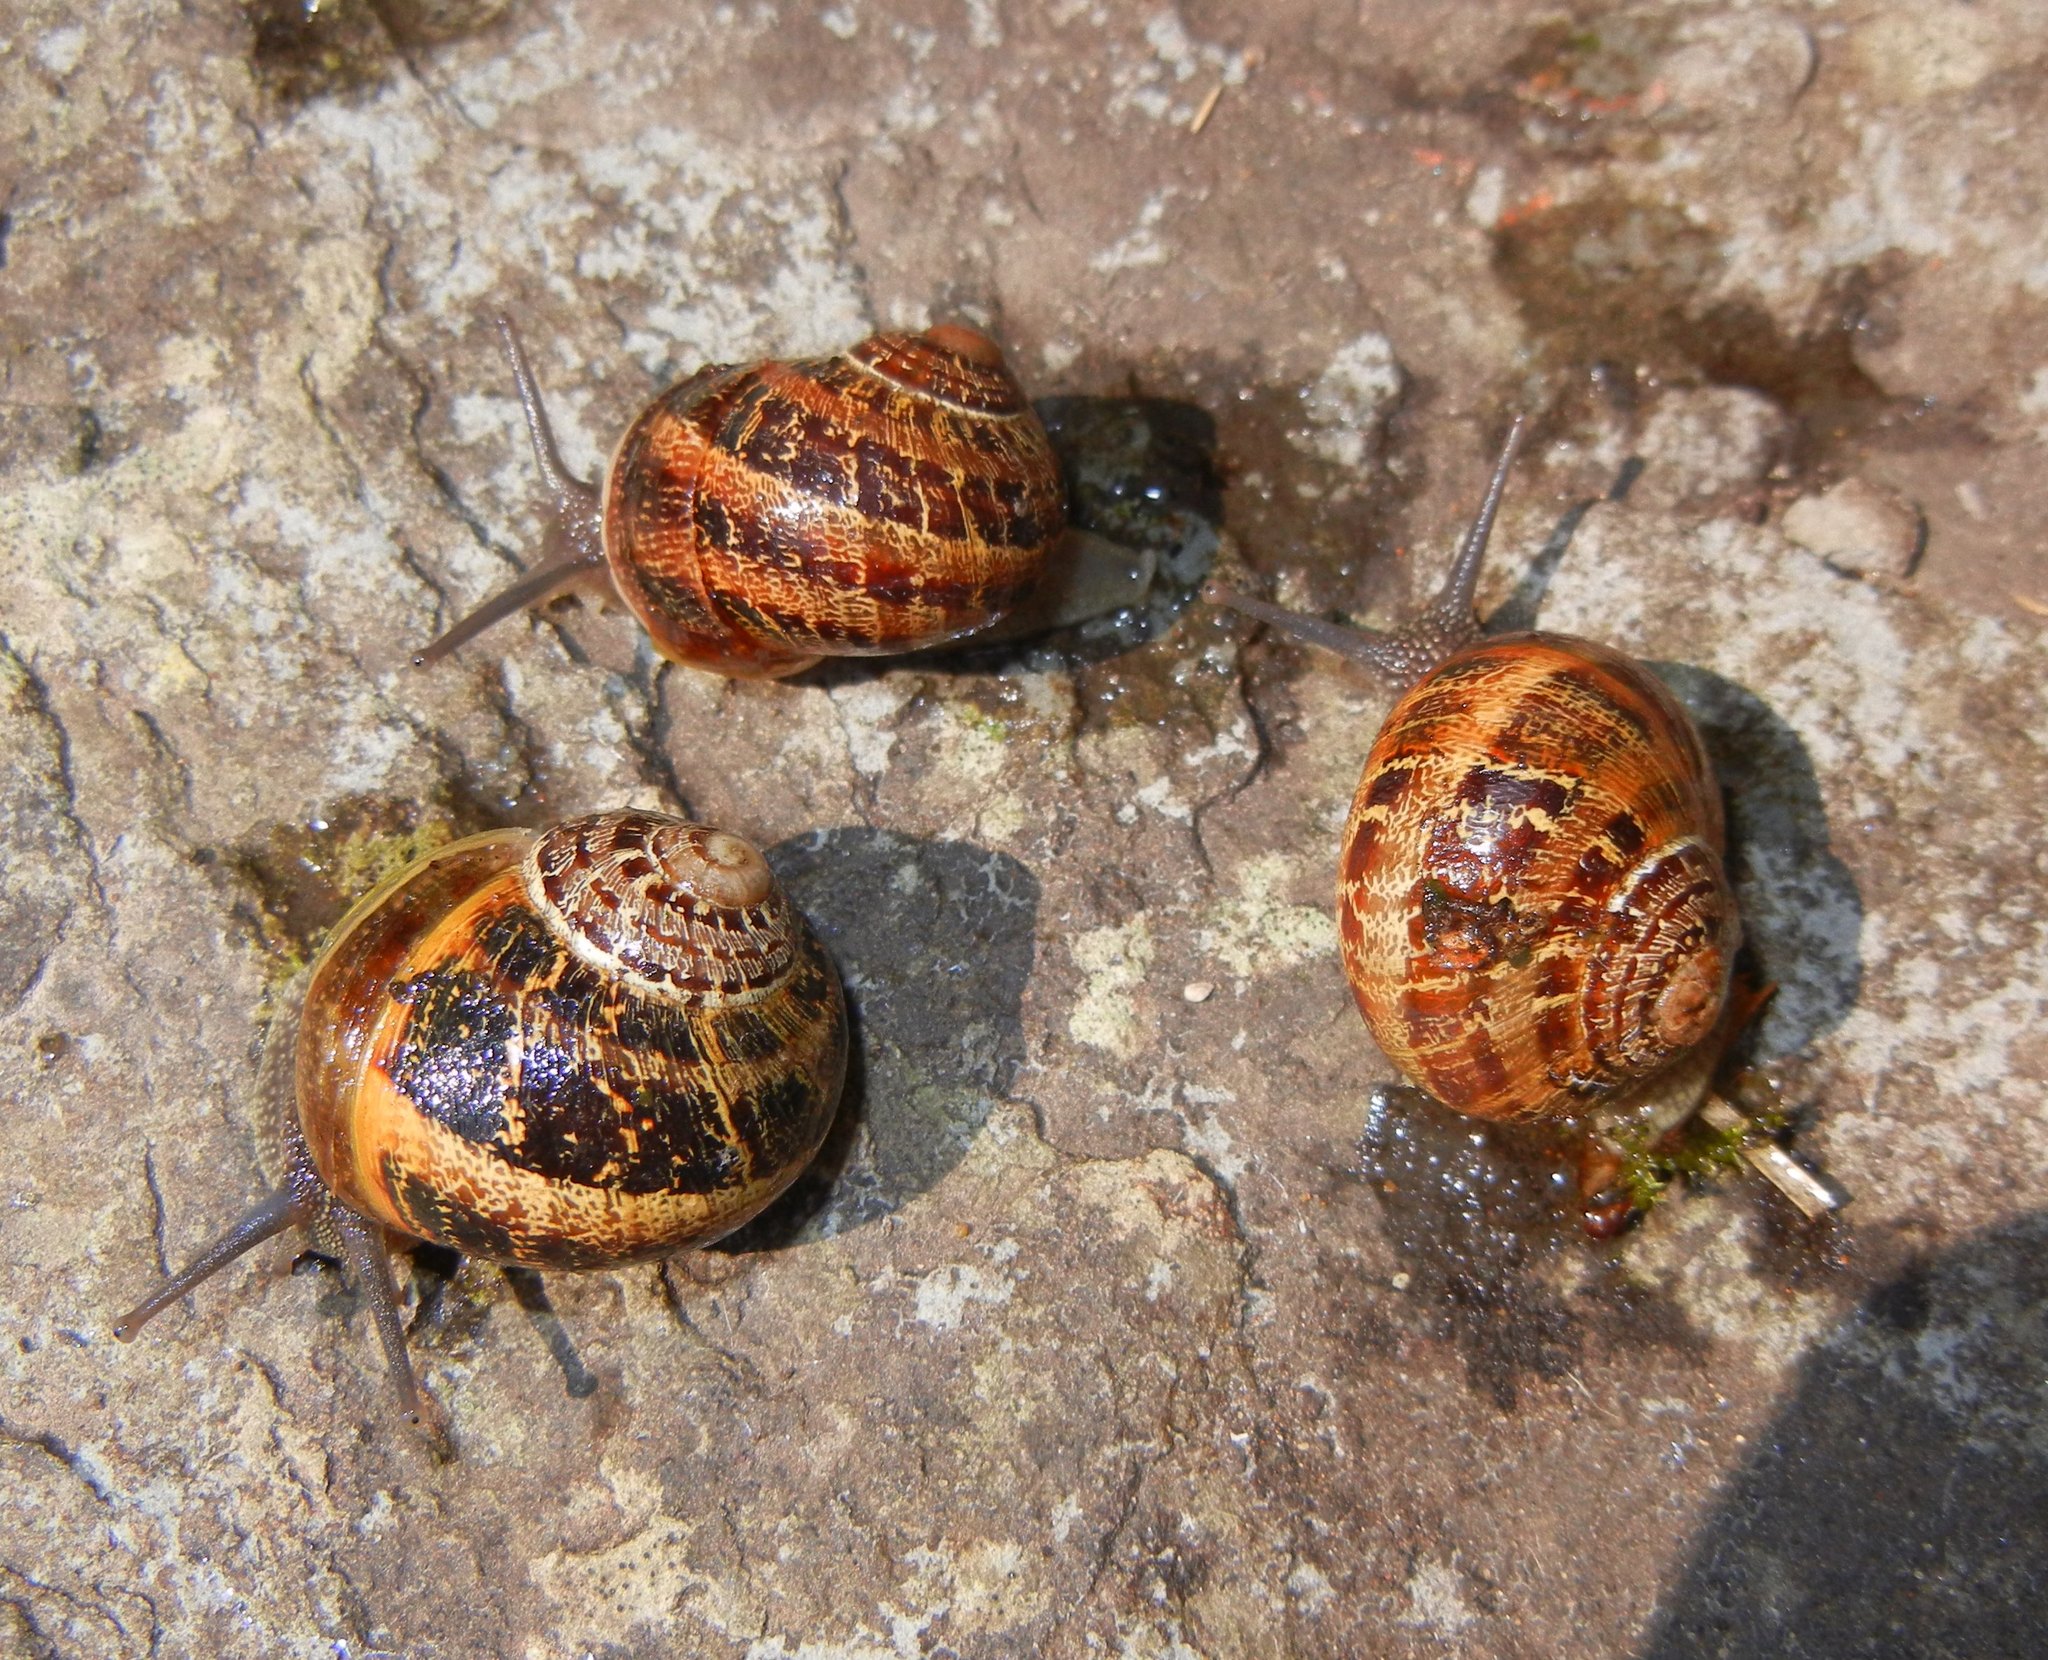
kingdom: Animalia
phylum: Mollusca
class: Gastropoda
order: Stylommatophora
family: Helicidae
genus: Cornu
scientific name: Cornu aspersum
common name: Brown garden snail
